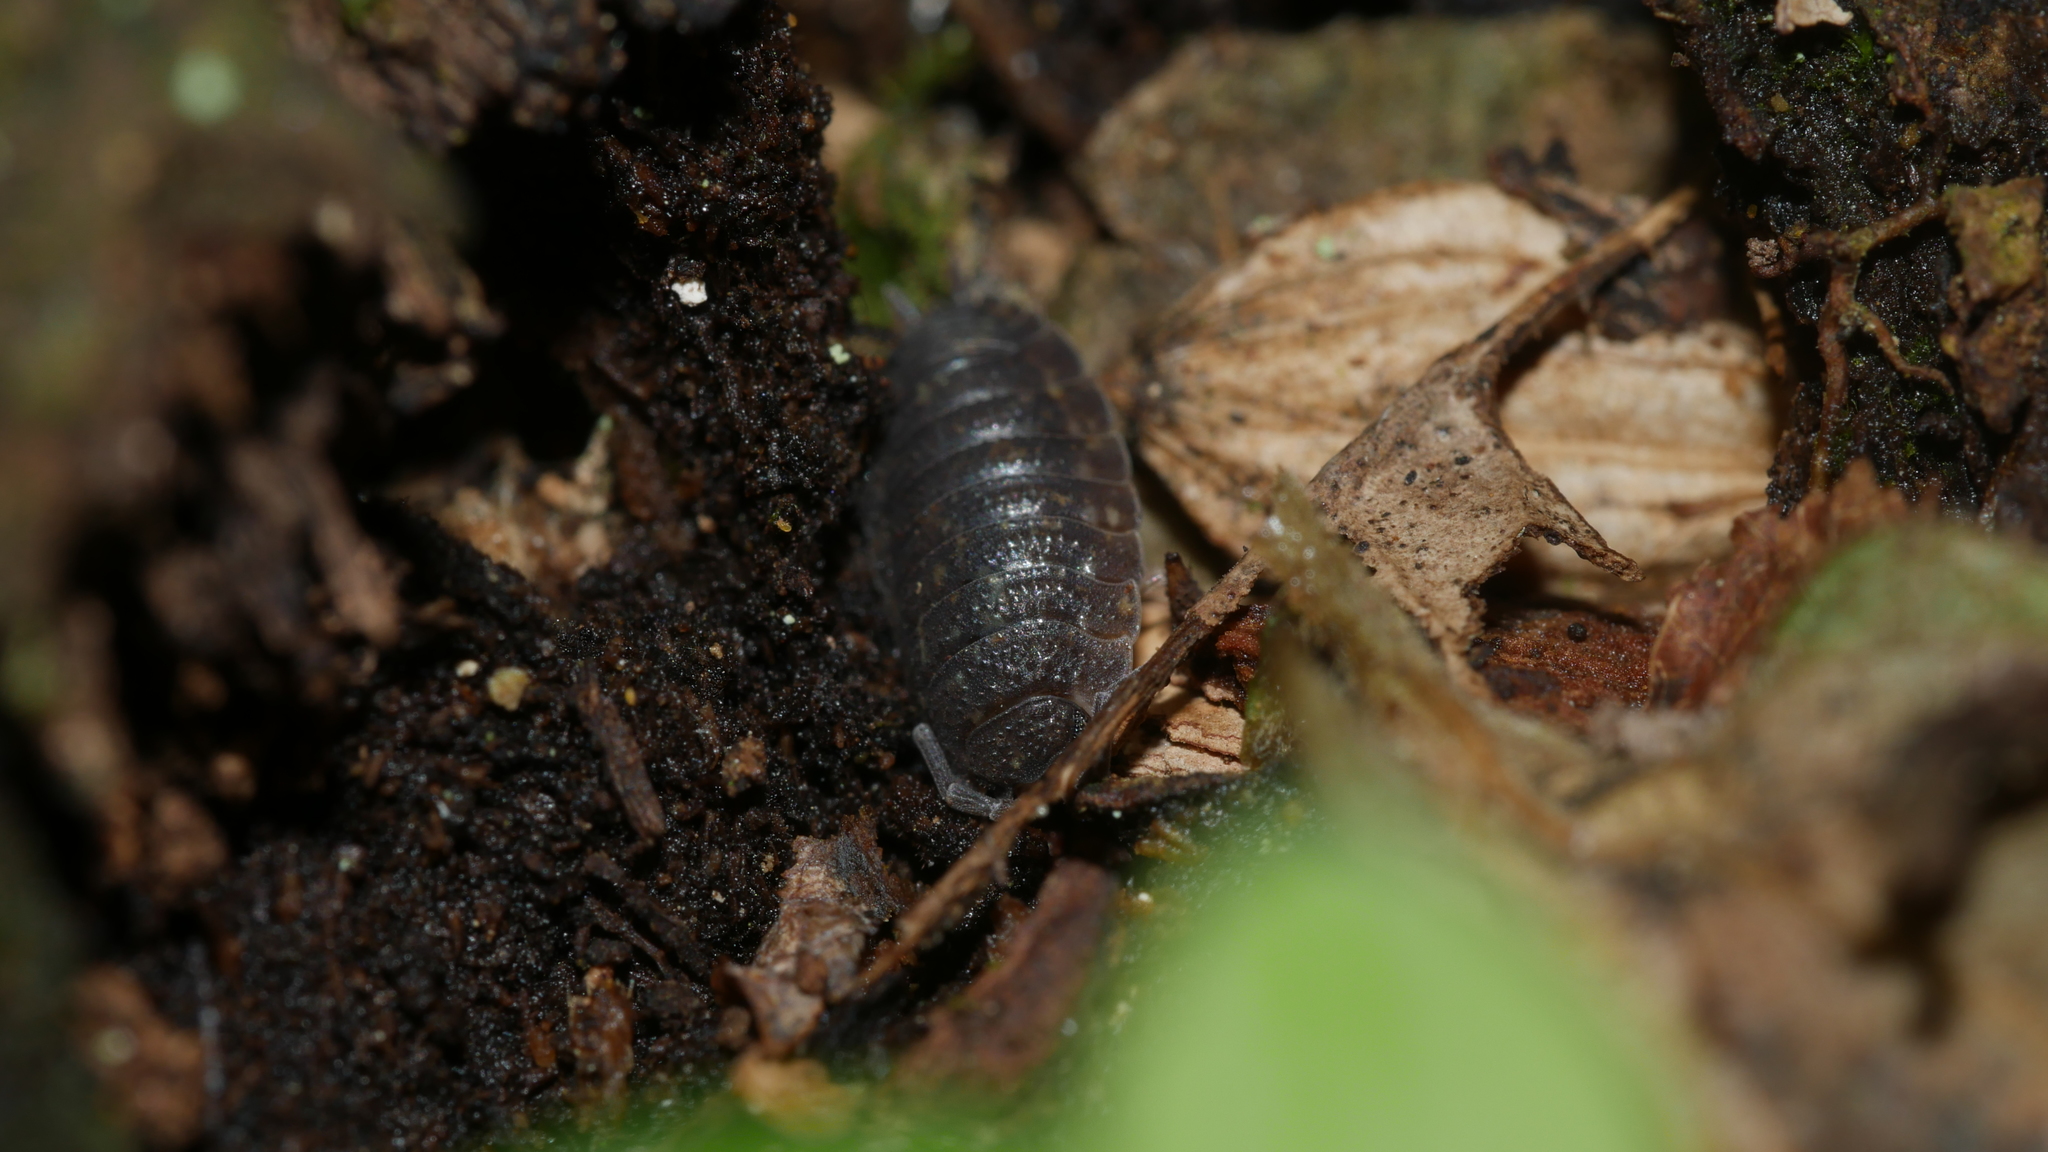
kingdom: Animalia
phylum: Arthropoda
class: Malacostraca
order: Isopoda
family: Porcellionidae
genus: Porcellio
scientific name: Porcellio scaber
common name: Common rough woodlouse
